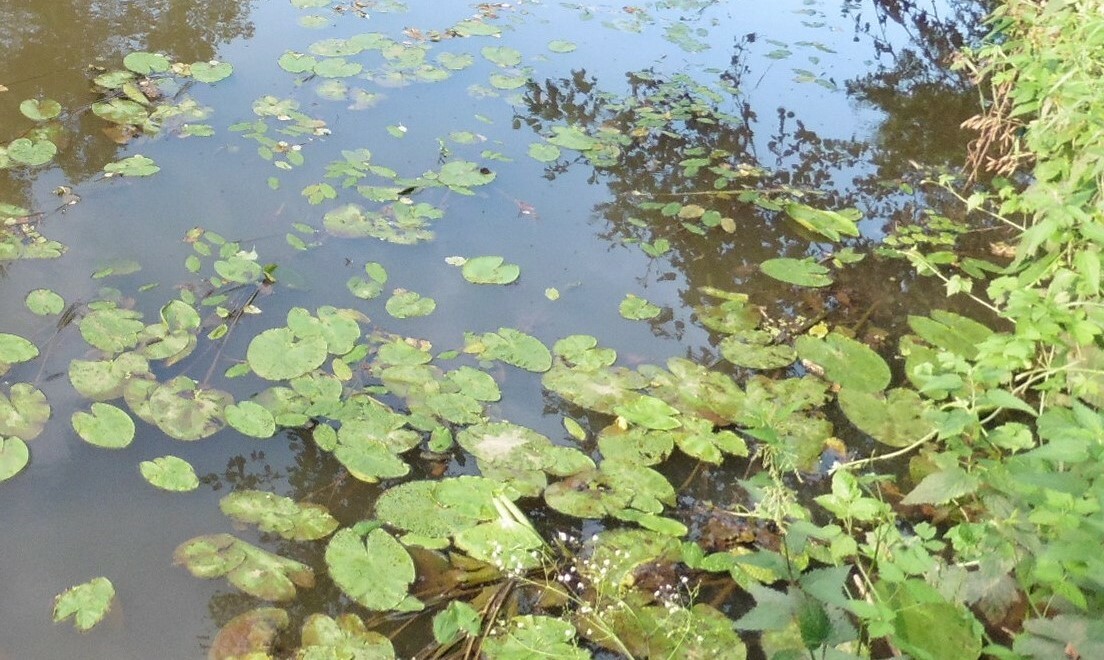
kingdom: Plantae
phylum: Tracheophyta
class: Magnoliopsida
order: Nymphaeales
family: Nymphaeaceae
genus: Nuphar
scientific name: Nuphar lutea
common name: Yellow water-lily
